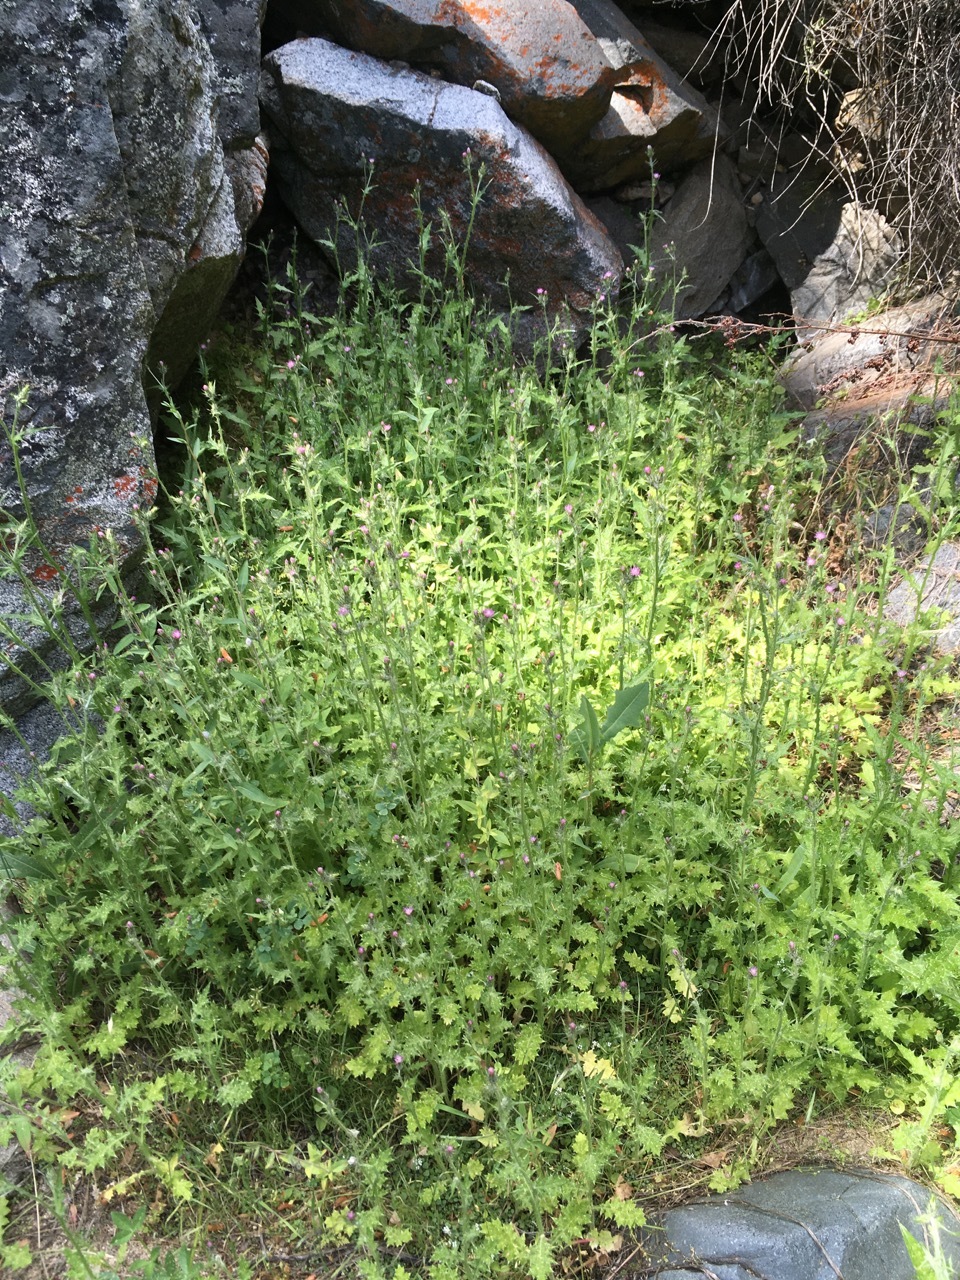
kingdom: Plantae
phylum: Tracheophyta
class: Magnoliopsida
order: Asterales
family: Asteraceae
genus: Carduus
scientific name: Carduus pycnocephalus
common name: Plymouth thistle
